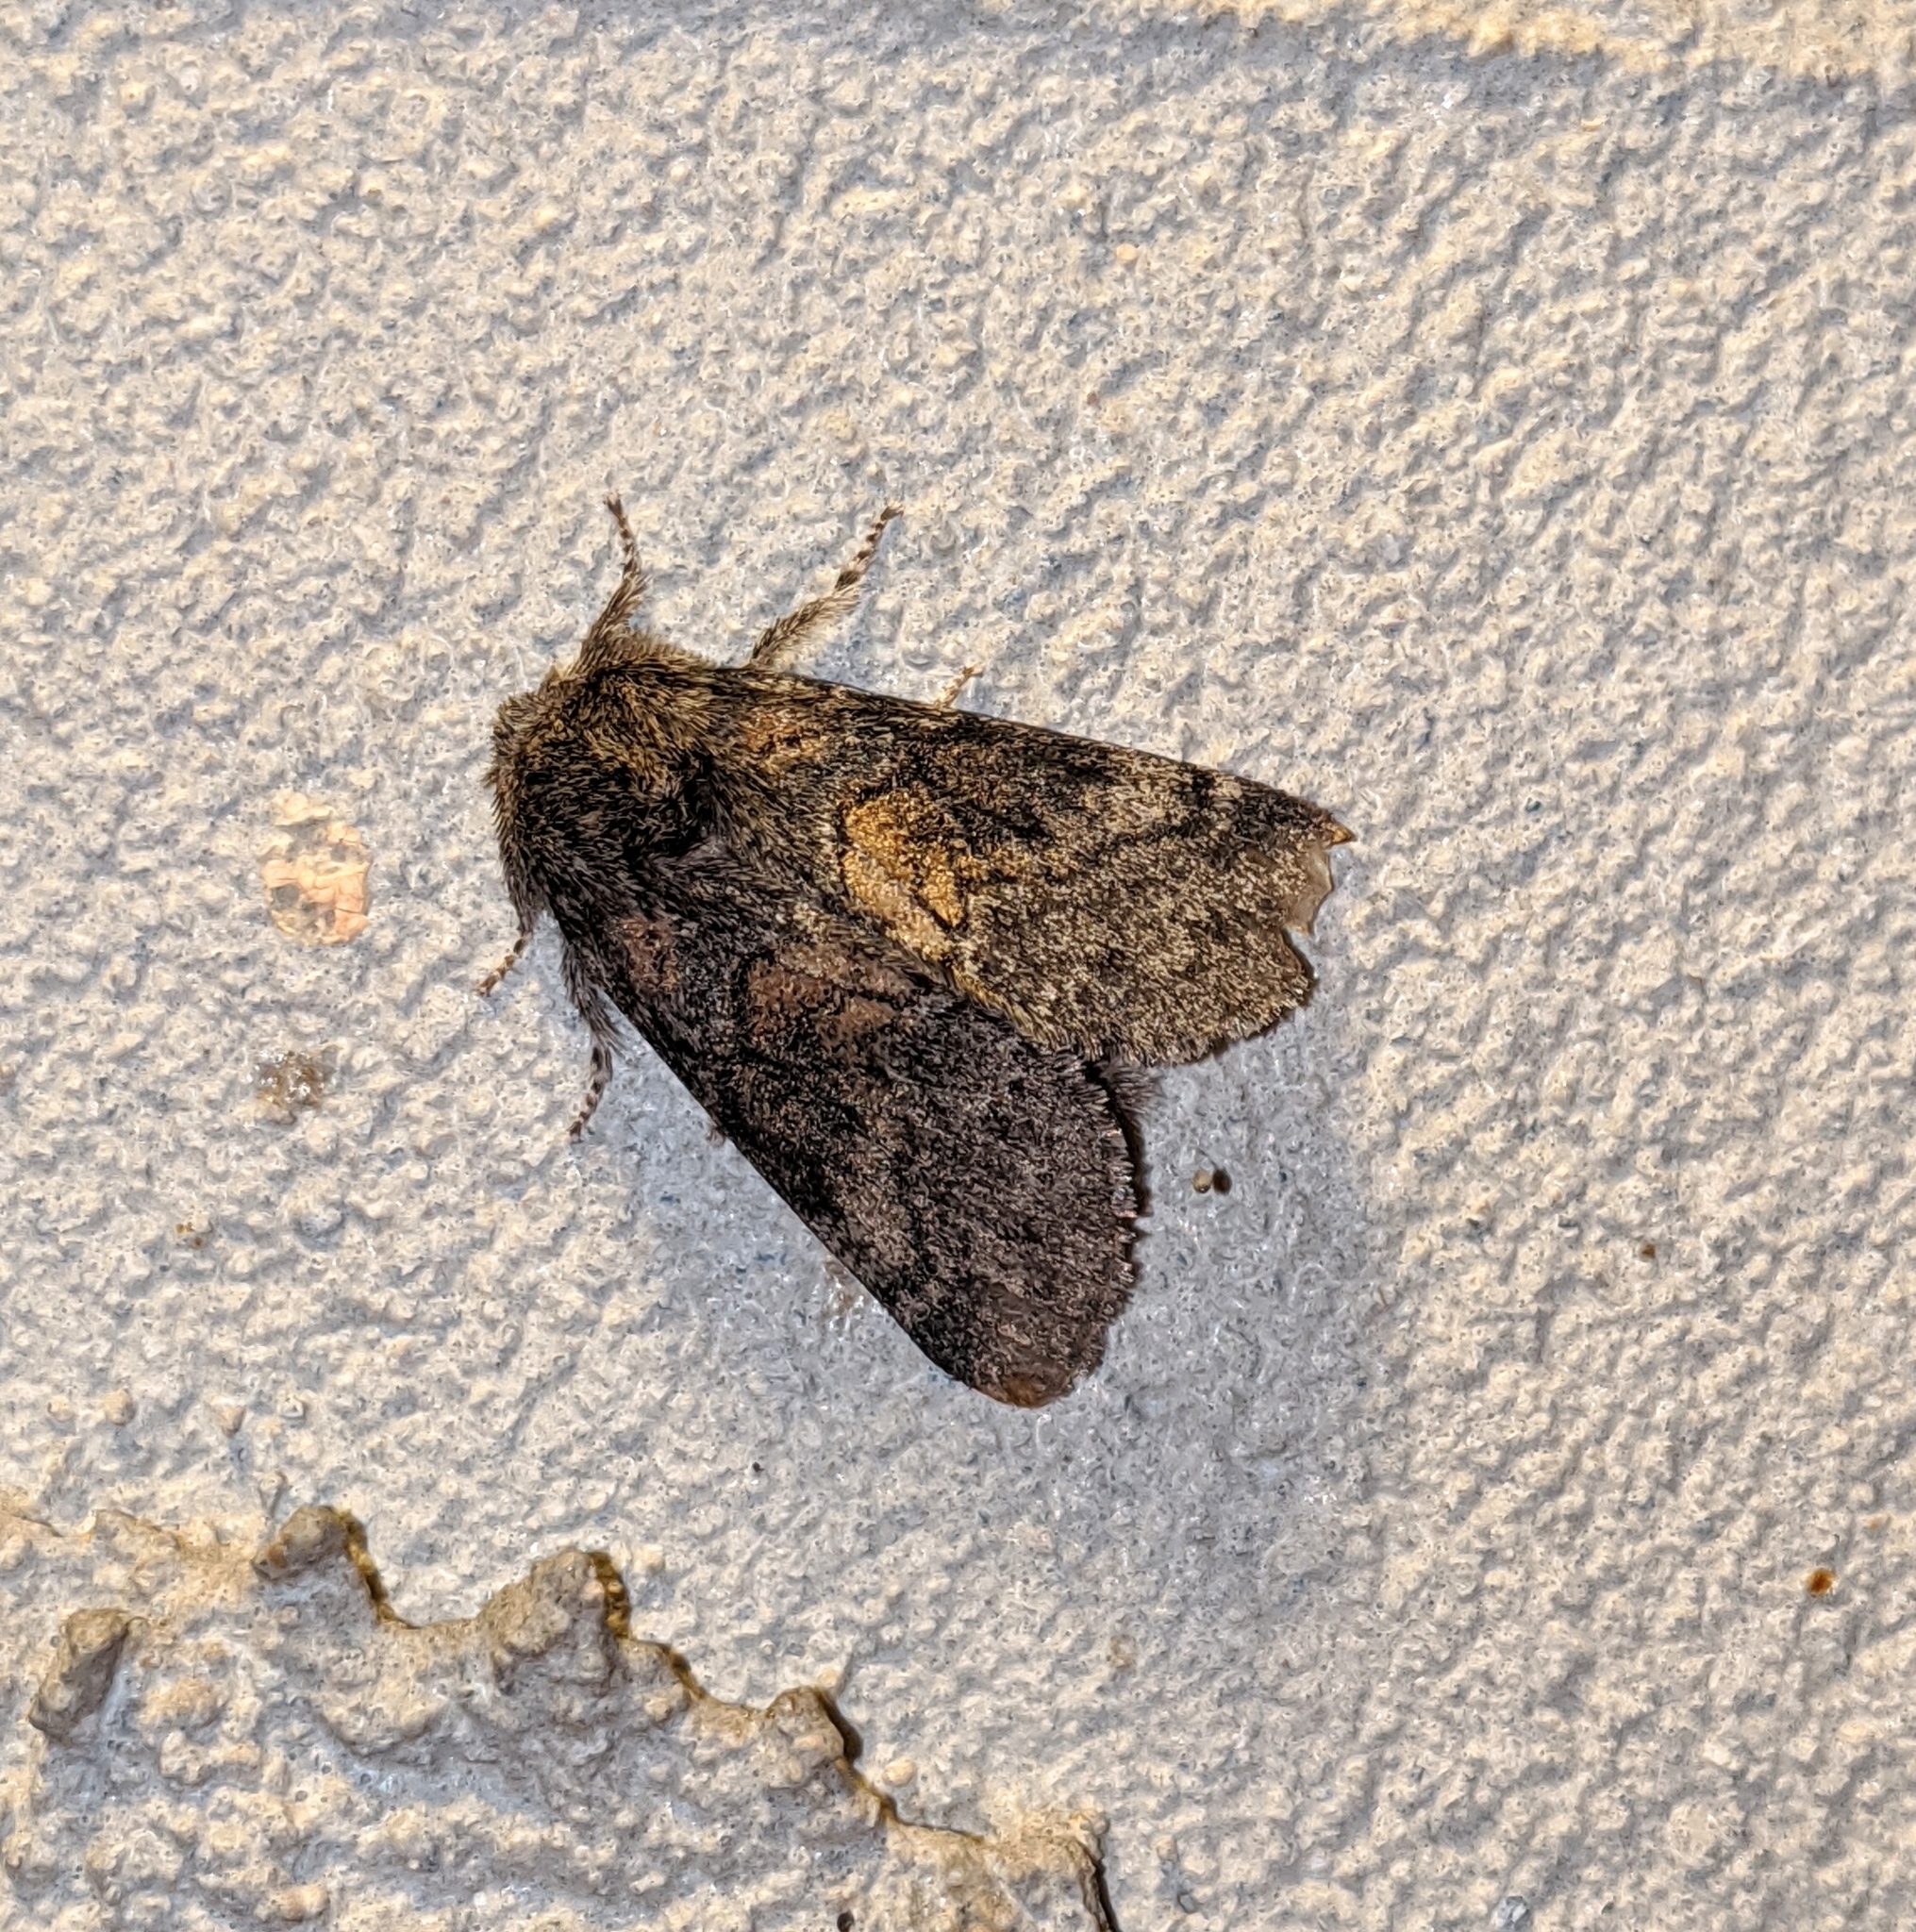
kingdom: Animalia
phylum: Arthropoda
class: Insecta
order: Lepidoptera
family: Notodontidae
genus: Gluphisia
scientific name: Gluphisia septentrionis
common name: Common gluphisia
